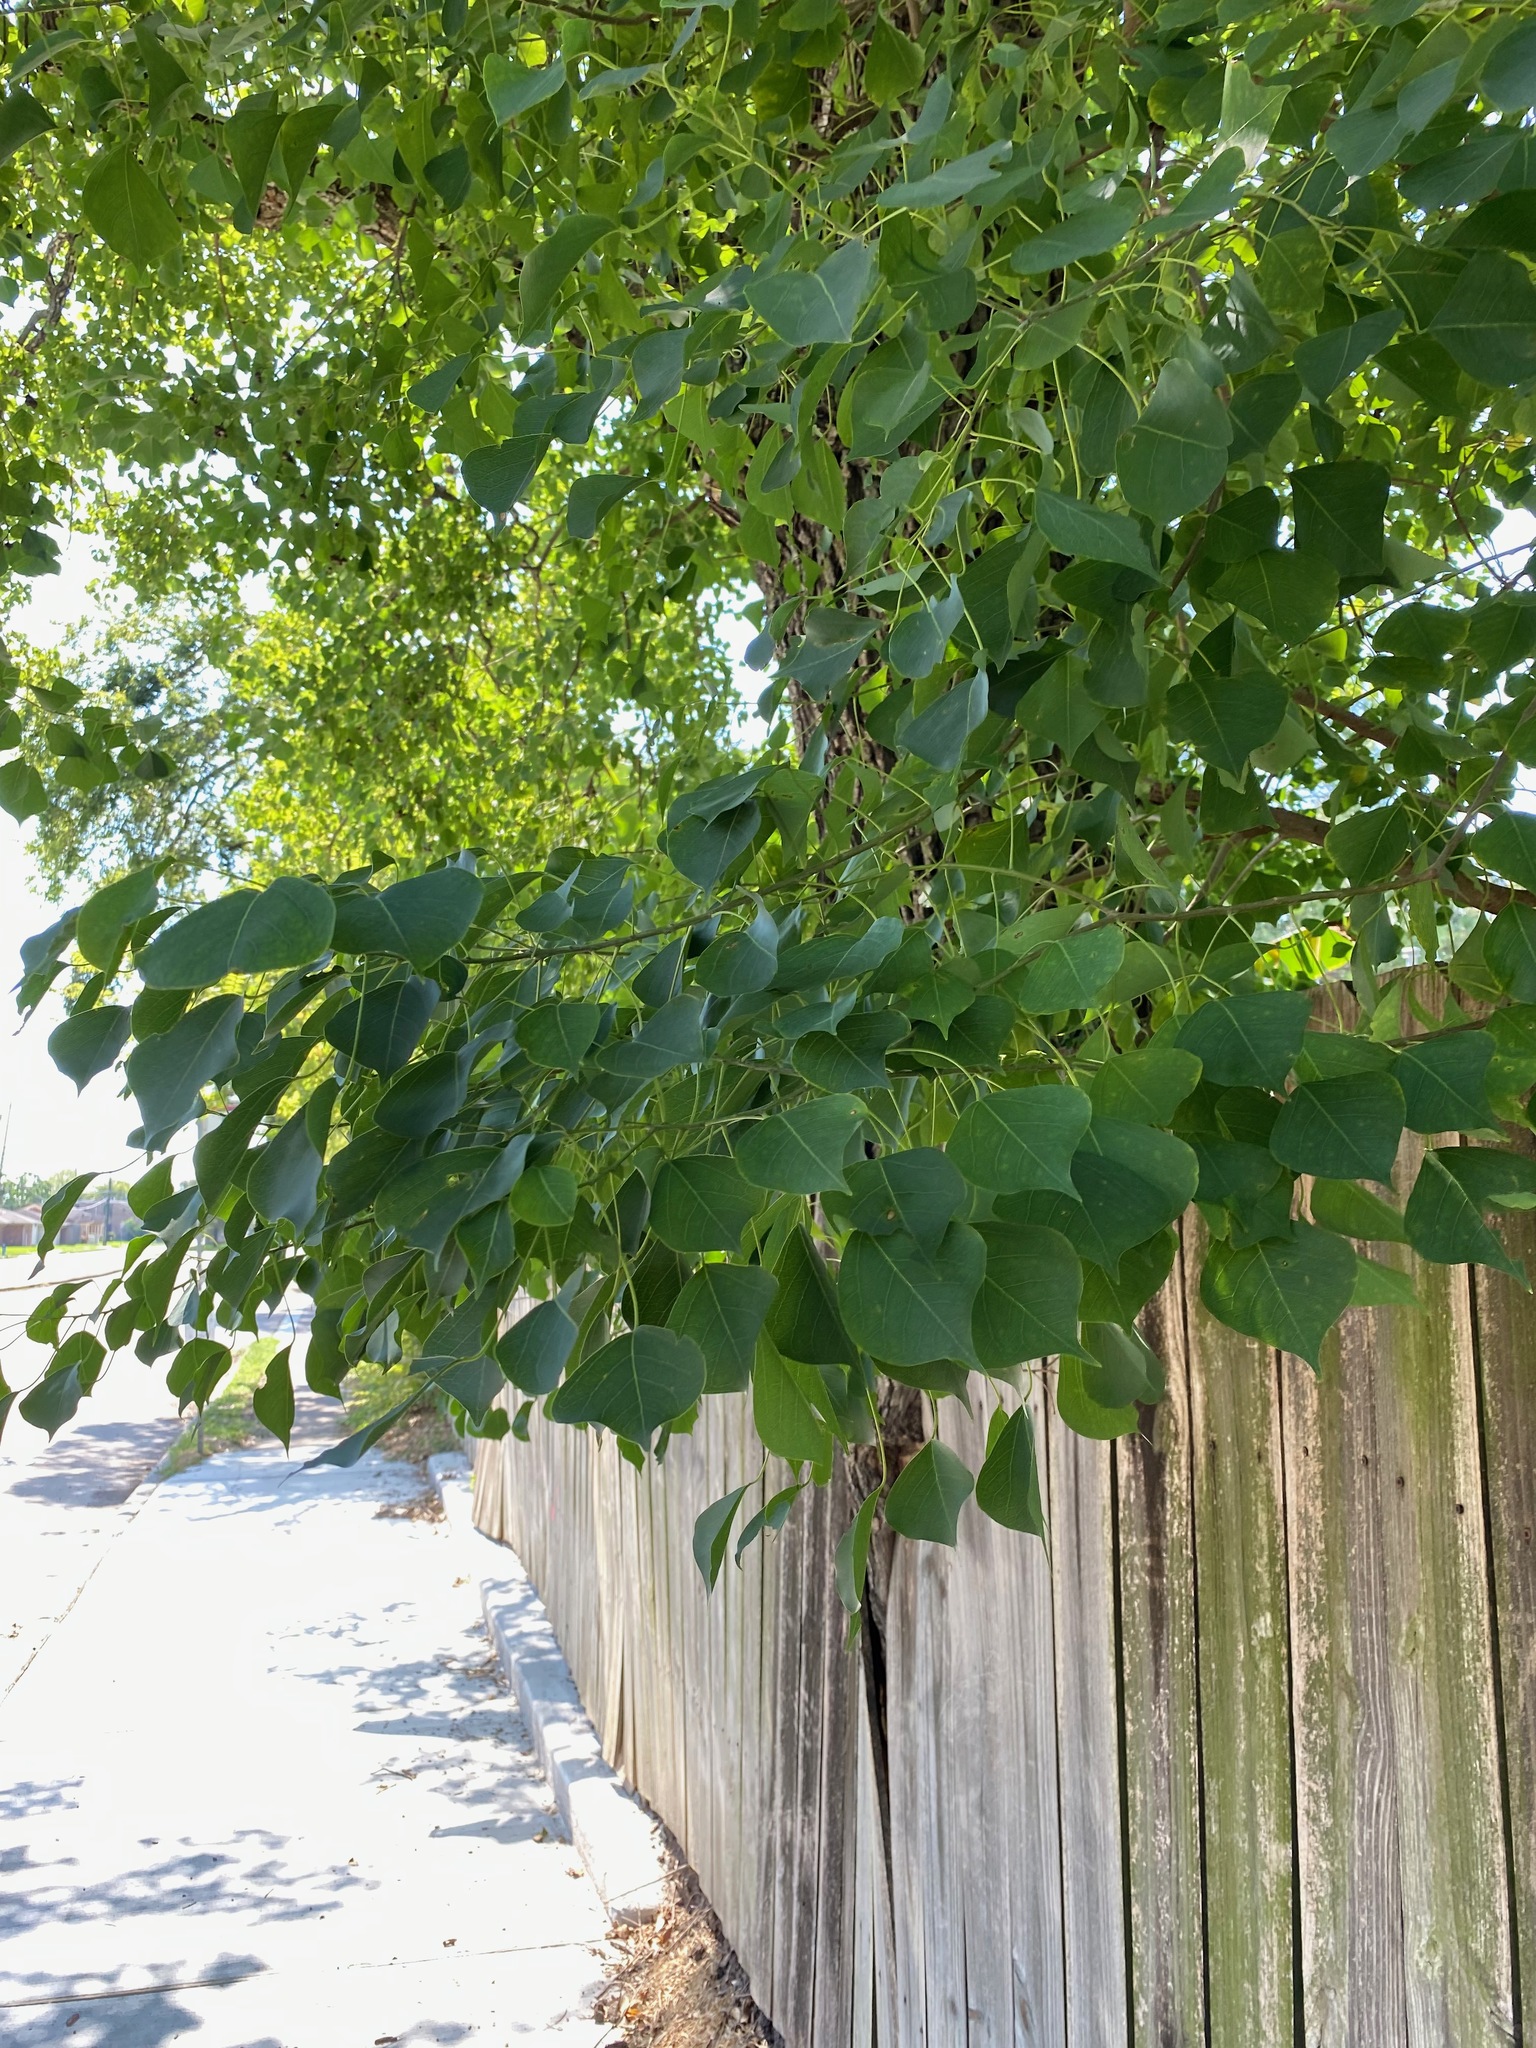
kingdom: Plantae
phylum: Tracheophyta
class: Magnoliopsida
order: Malpighiales
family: Euphorbiaceae
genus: Triadica
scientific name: Triadica sebifera
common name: Chinese tallow
